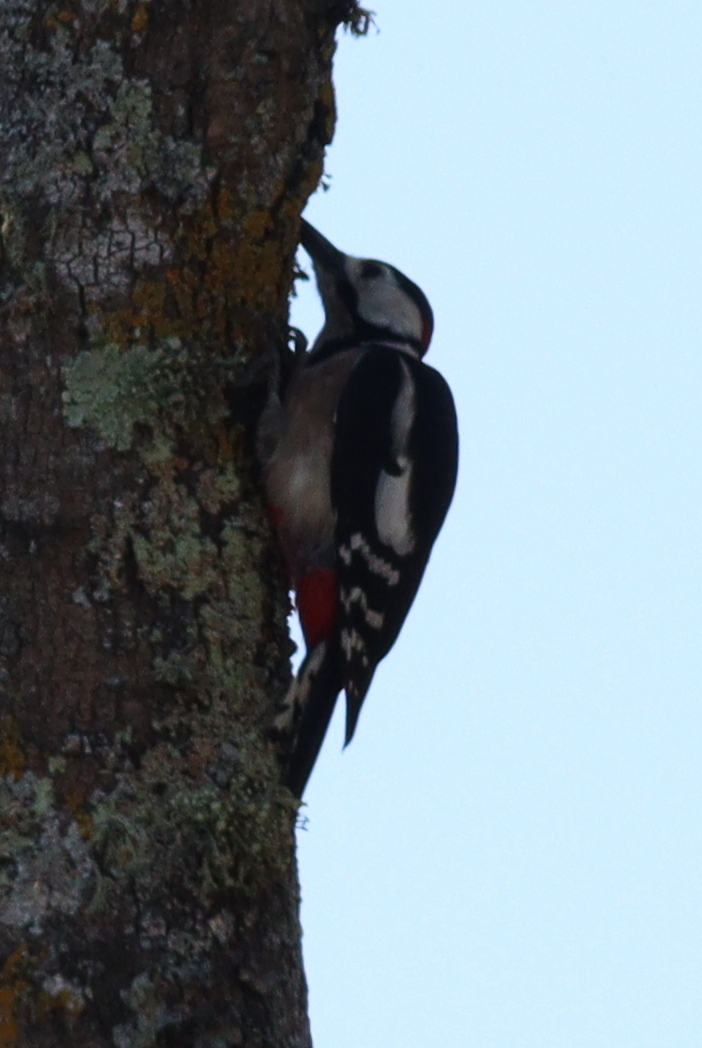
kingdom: Animalia
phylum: Chordata
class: Aves
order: Piciformes
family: Picidae
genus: Dendrocopos
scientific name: Dendrocopos major
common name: Great spotted woodpecker
